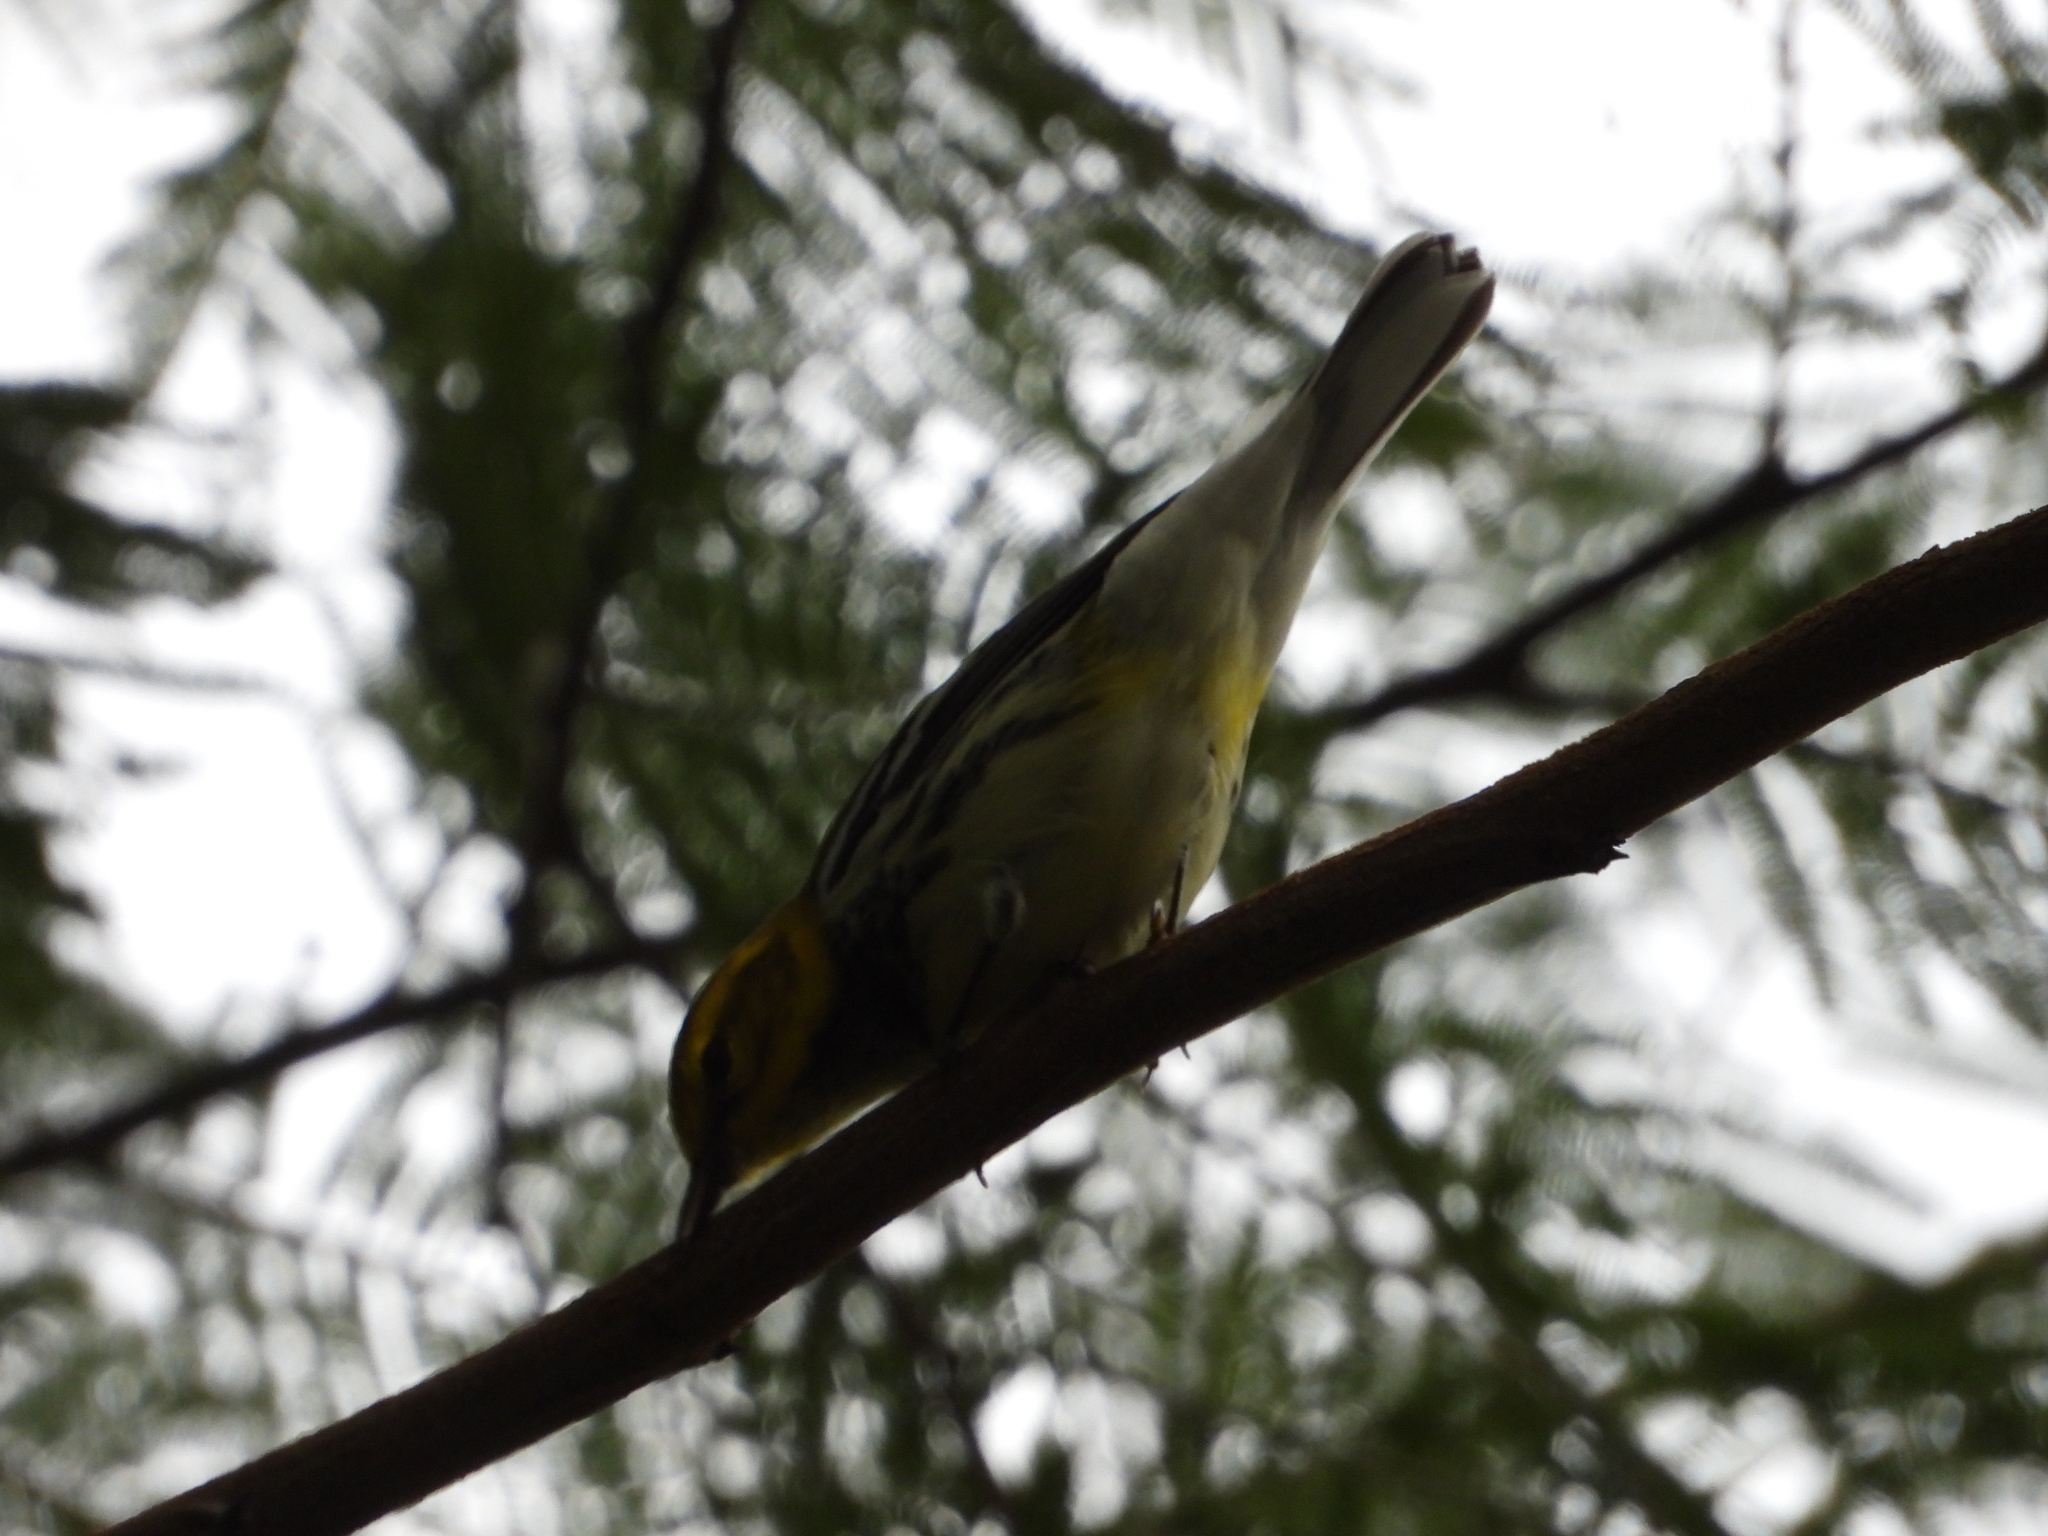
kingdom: Animalia
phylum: Chordata
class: Aves
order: Passeriformes
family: Parulidae
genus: Setophaga
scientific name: Setophaga virens
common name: Black-throated green warbler
